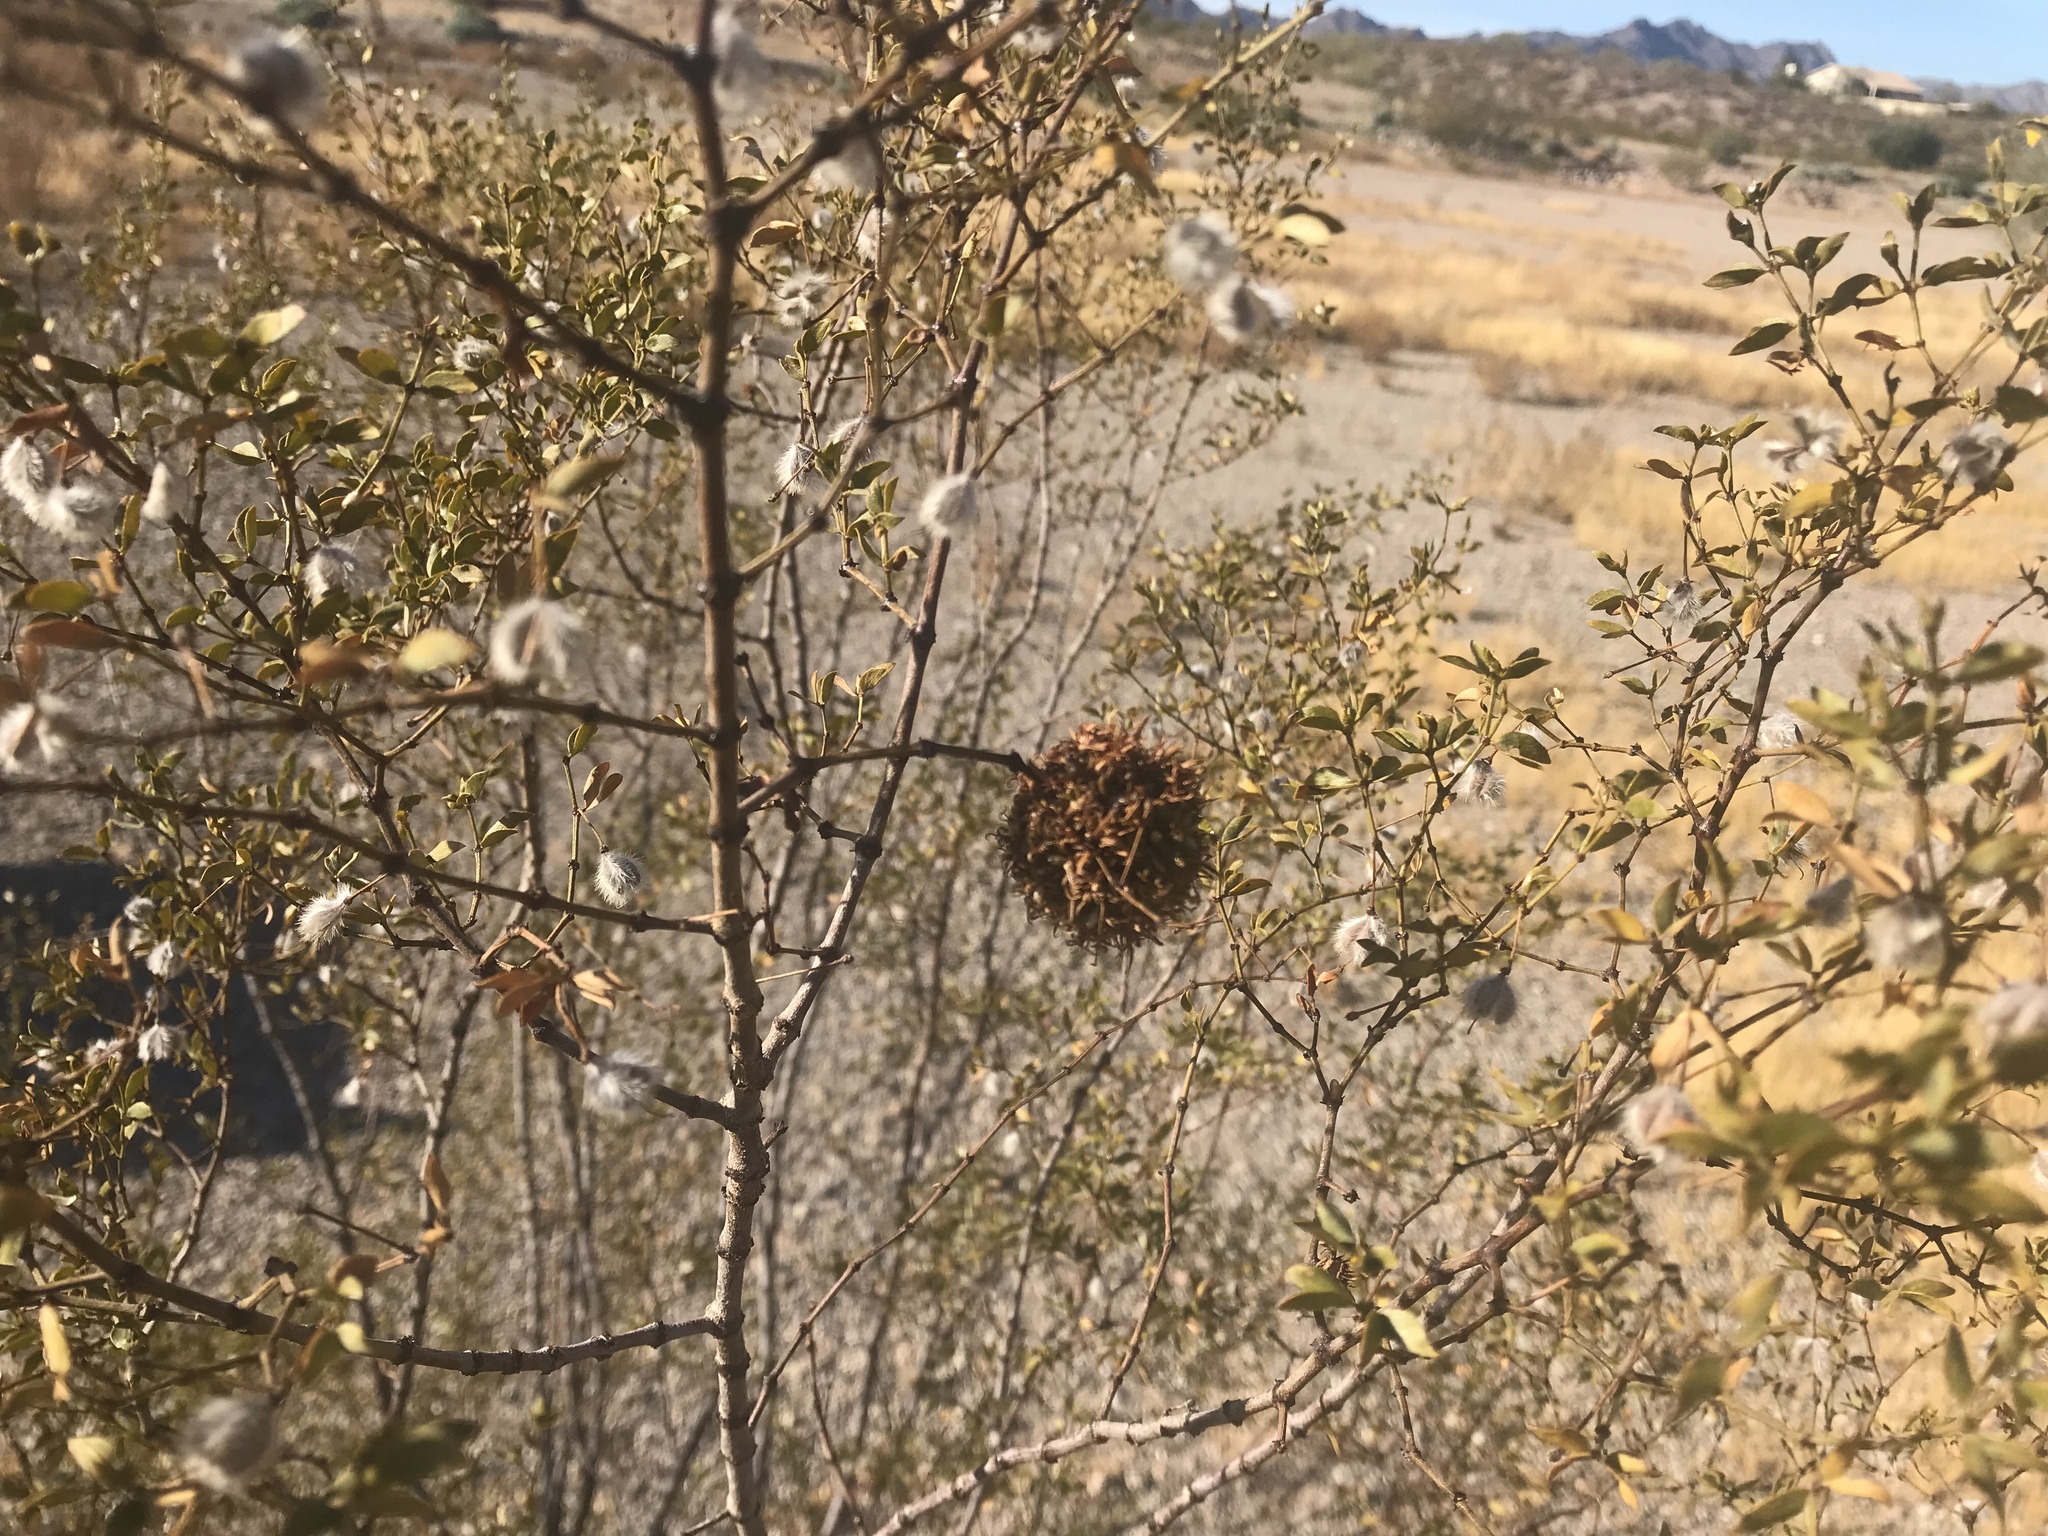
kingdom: Animalia
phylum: Arthropoda
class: Insecta
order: Diptera
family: Cecidomyiidae
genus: Asphondylia
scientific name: Asphondylia auripila
